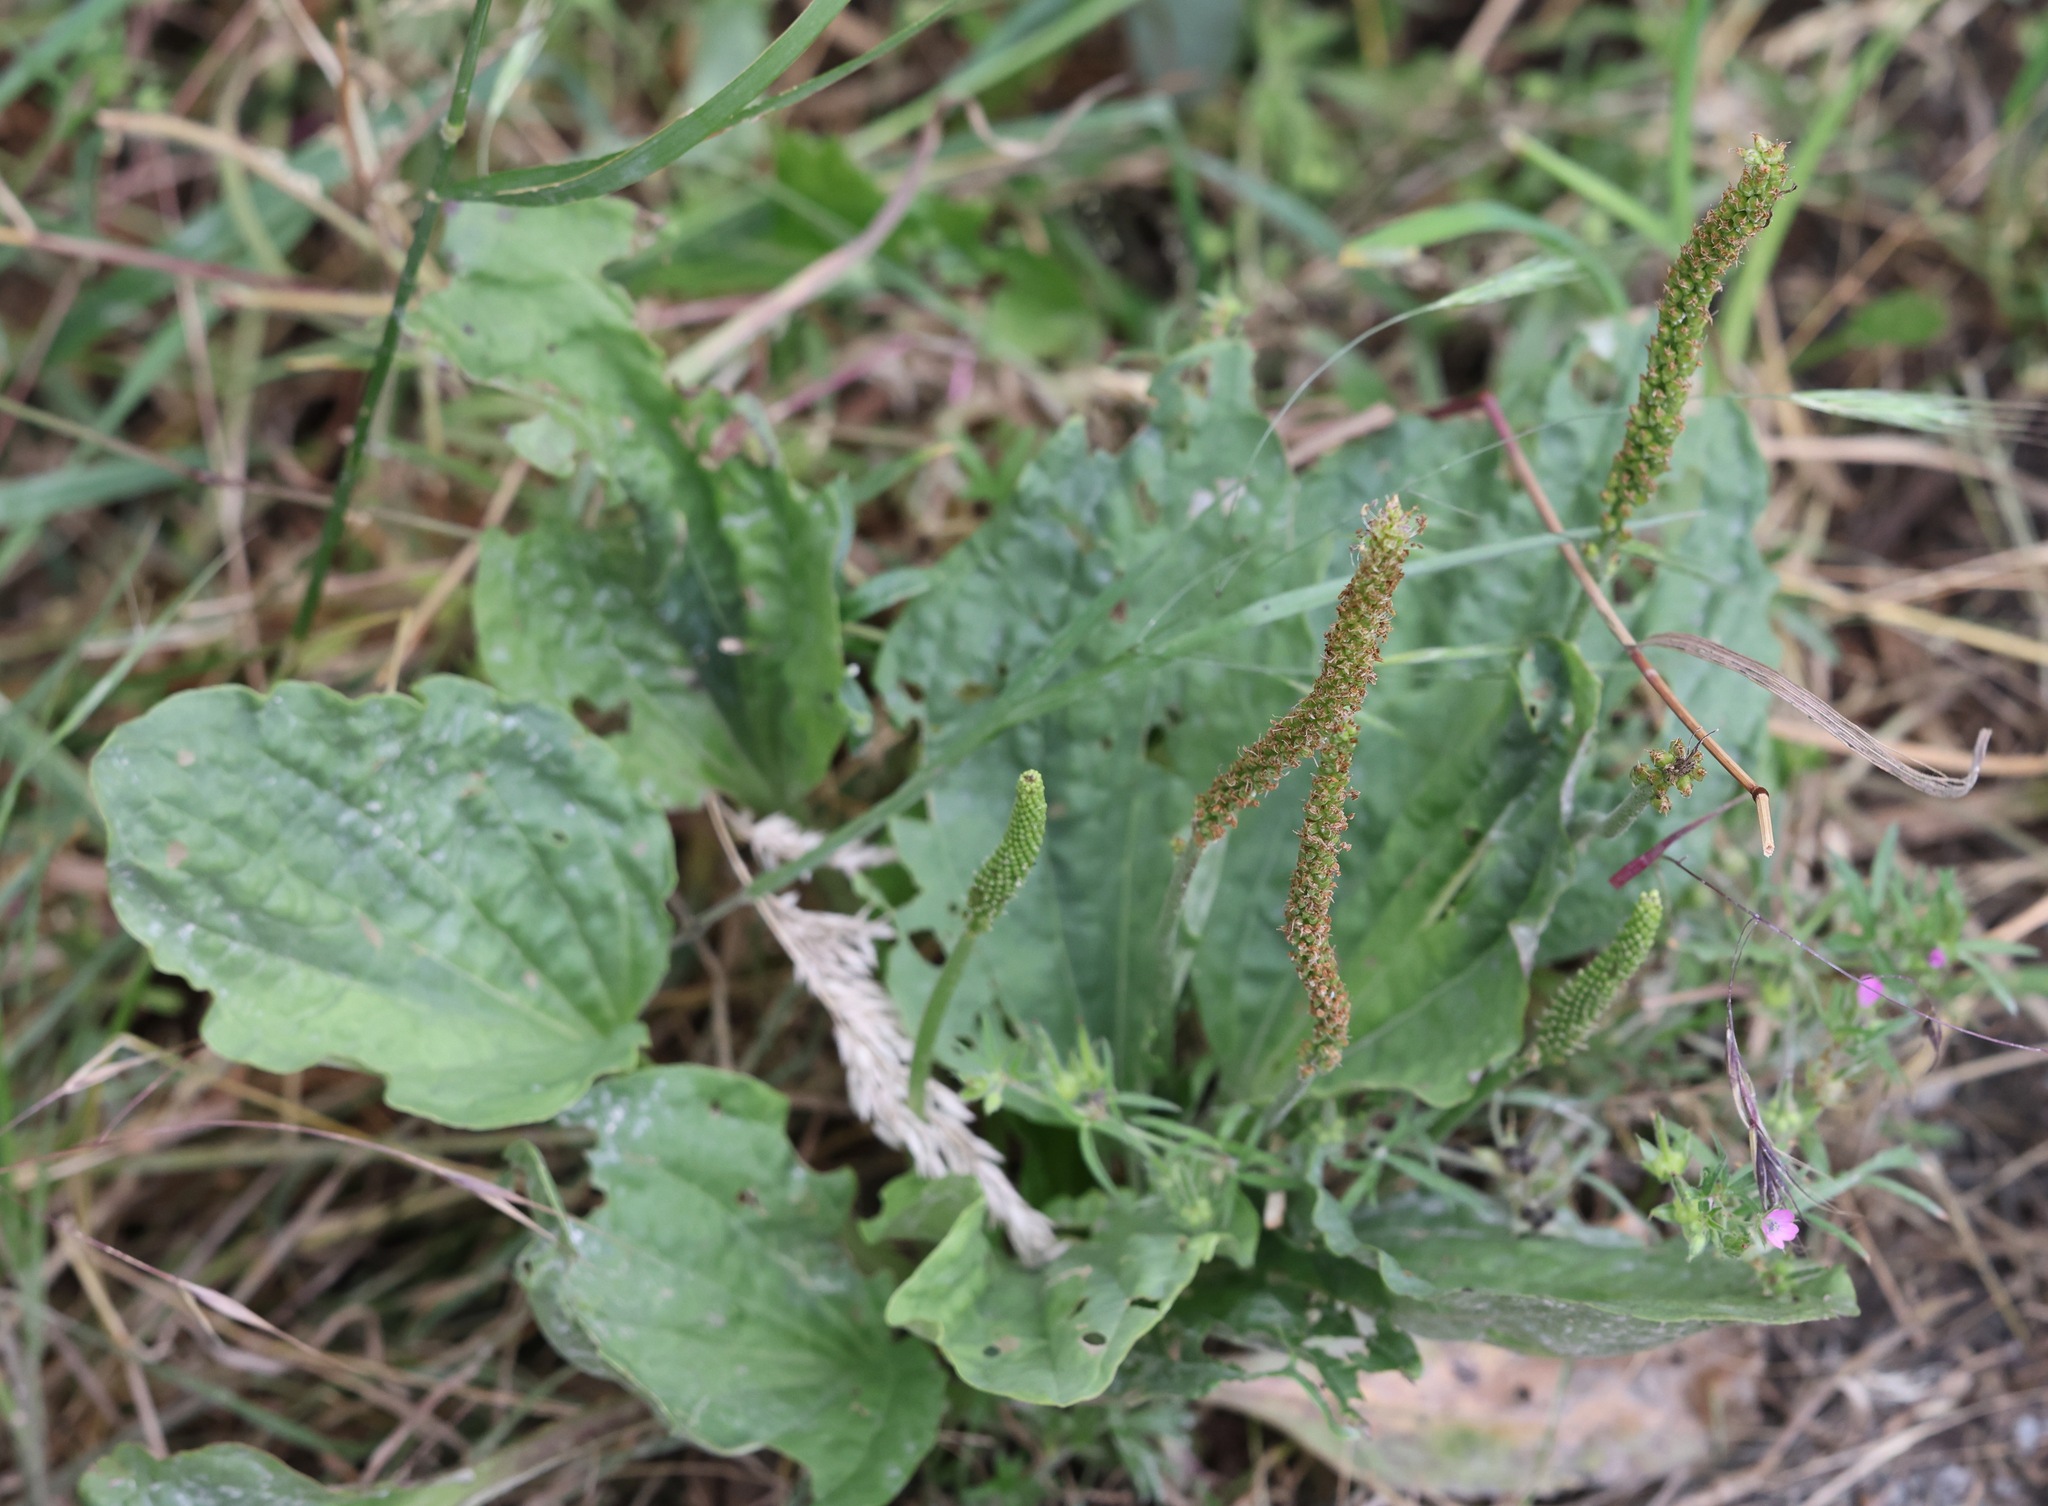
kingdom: Plantae
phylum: Tracheophyta
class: Magnoliopsida
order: Lamiales
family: Plantaginaceae
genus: Plantago
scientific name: Plantago major
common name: Common plantain
